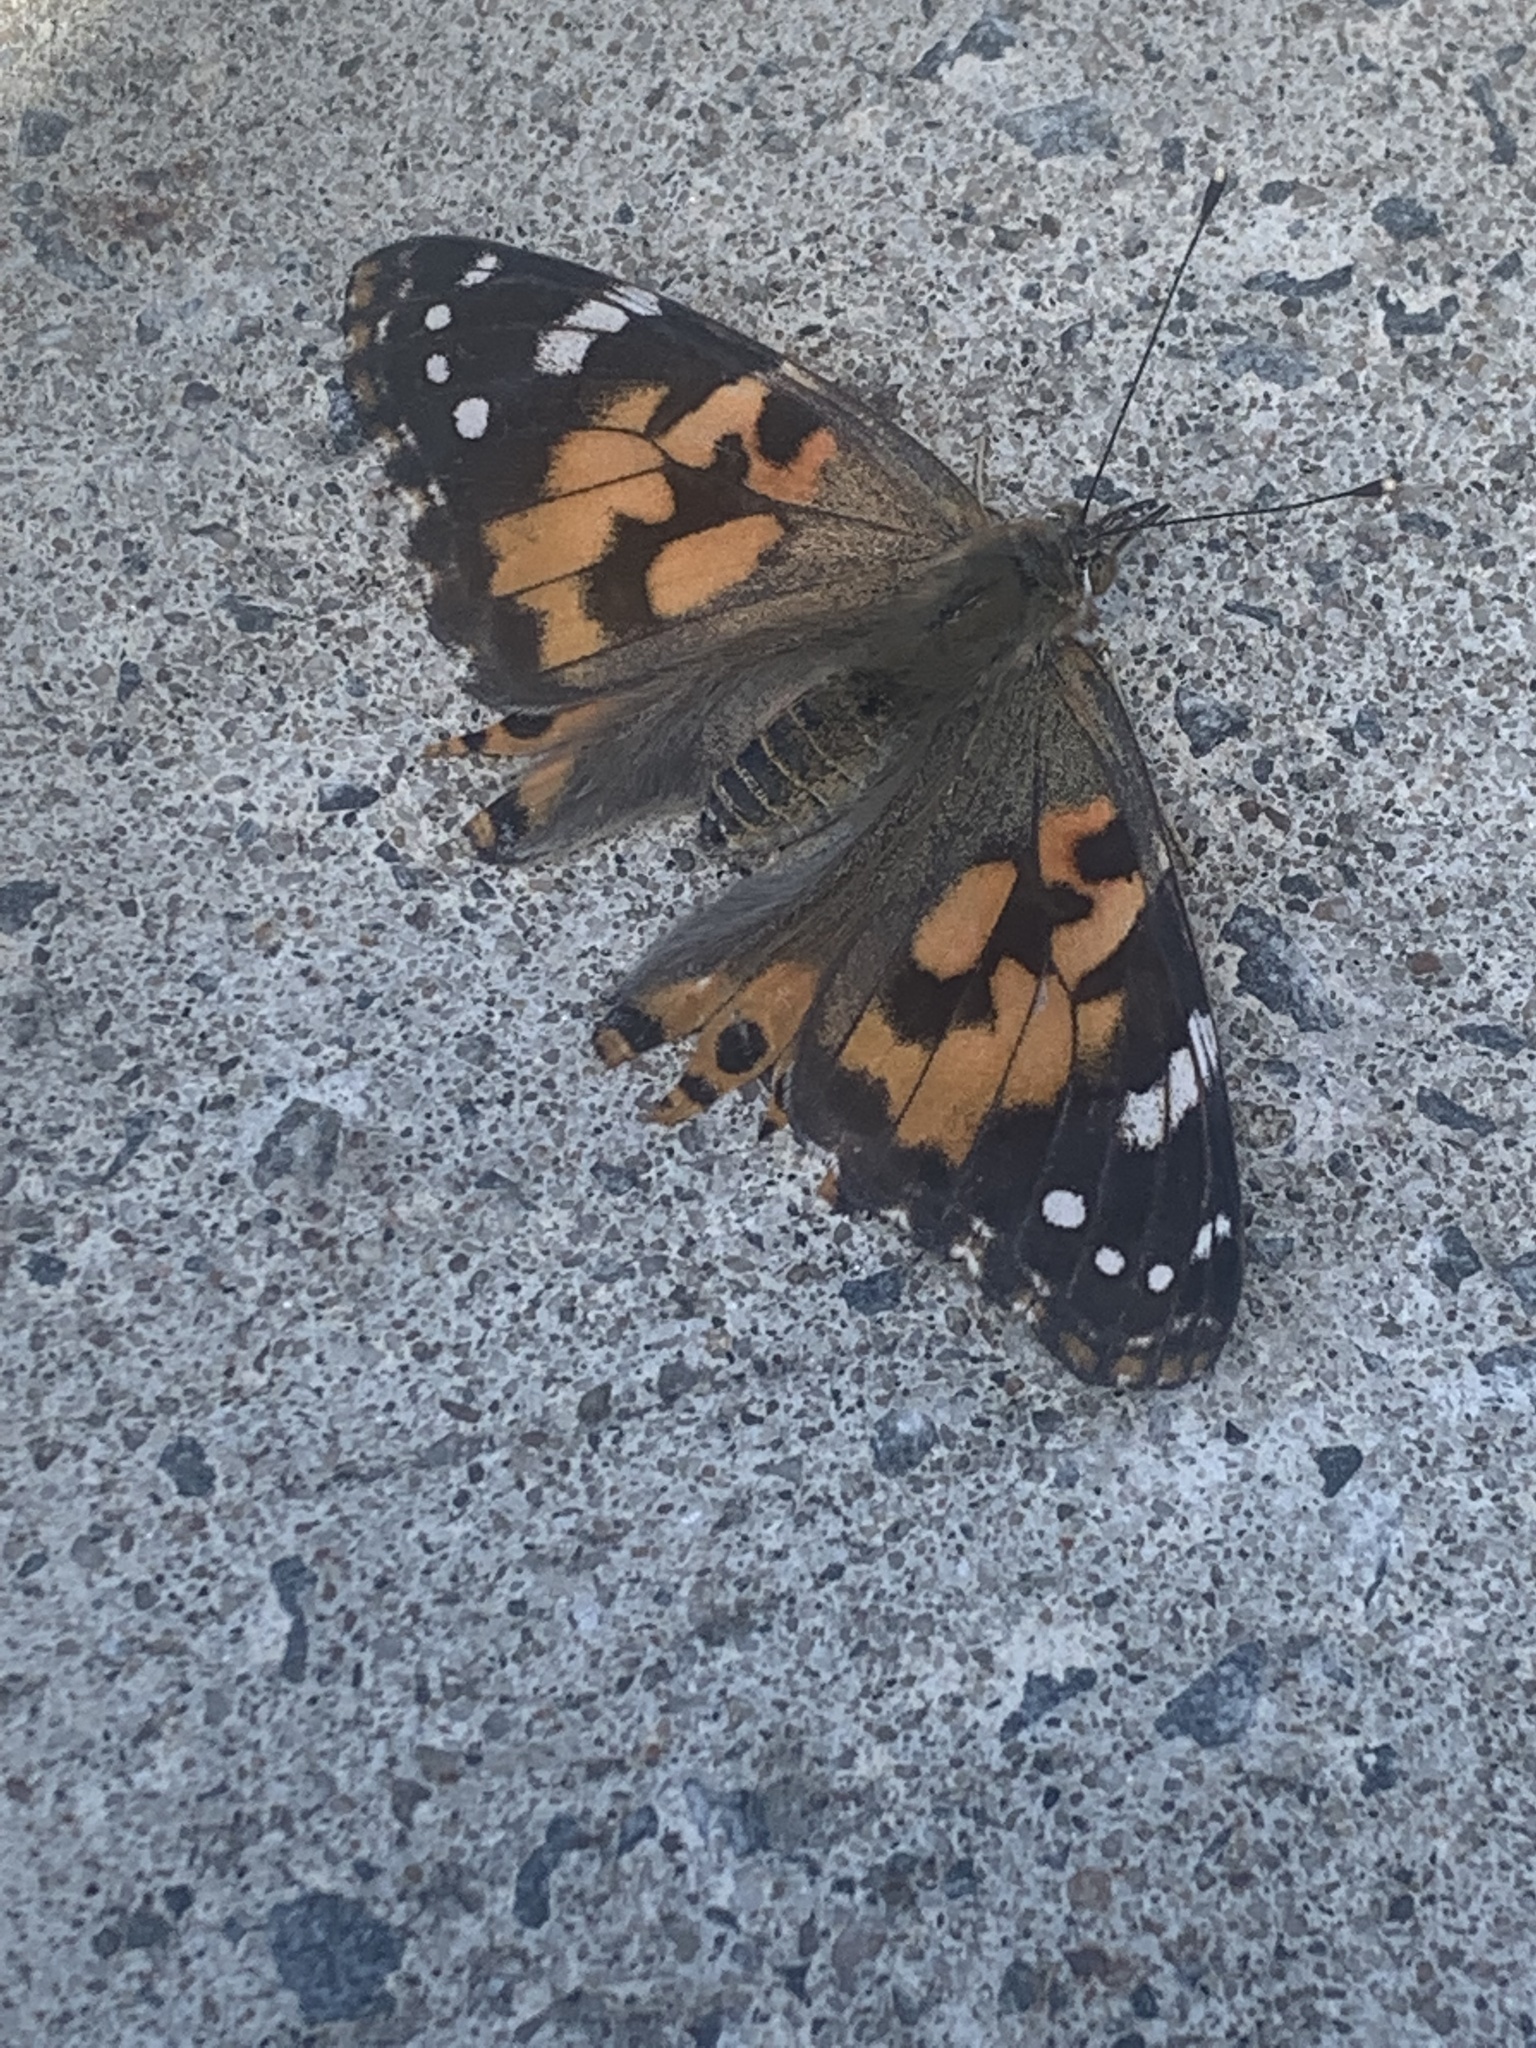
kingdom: Animalia
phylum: Arthropoda
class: Insecta
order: Lepidoptera
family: Nymphalidae
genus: Vanessa
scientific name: Vanessa cardui
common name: Painted lady
